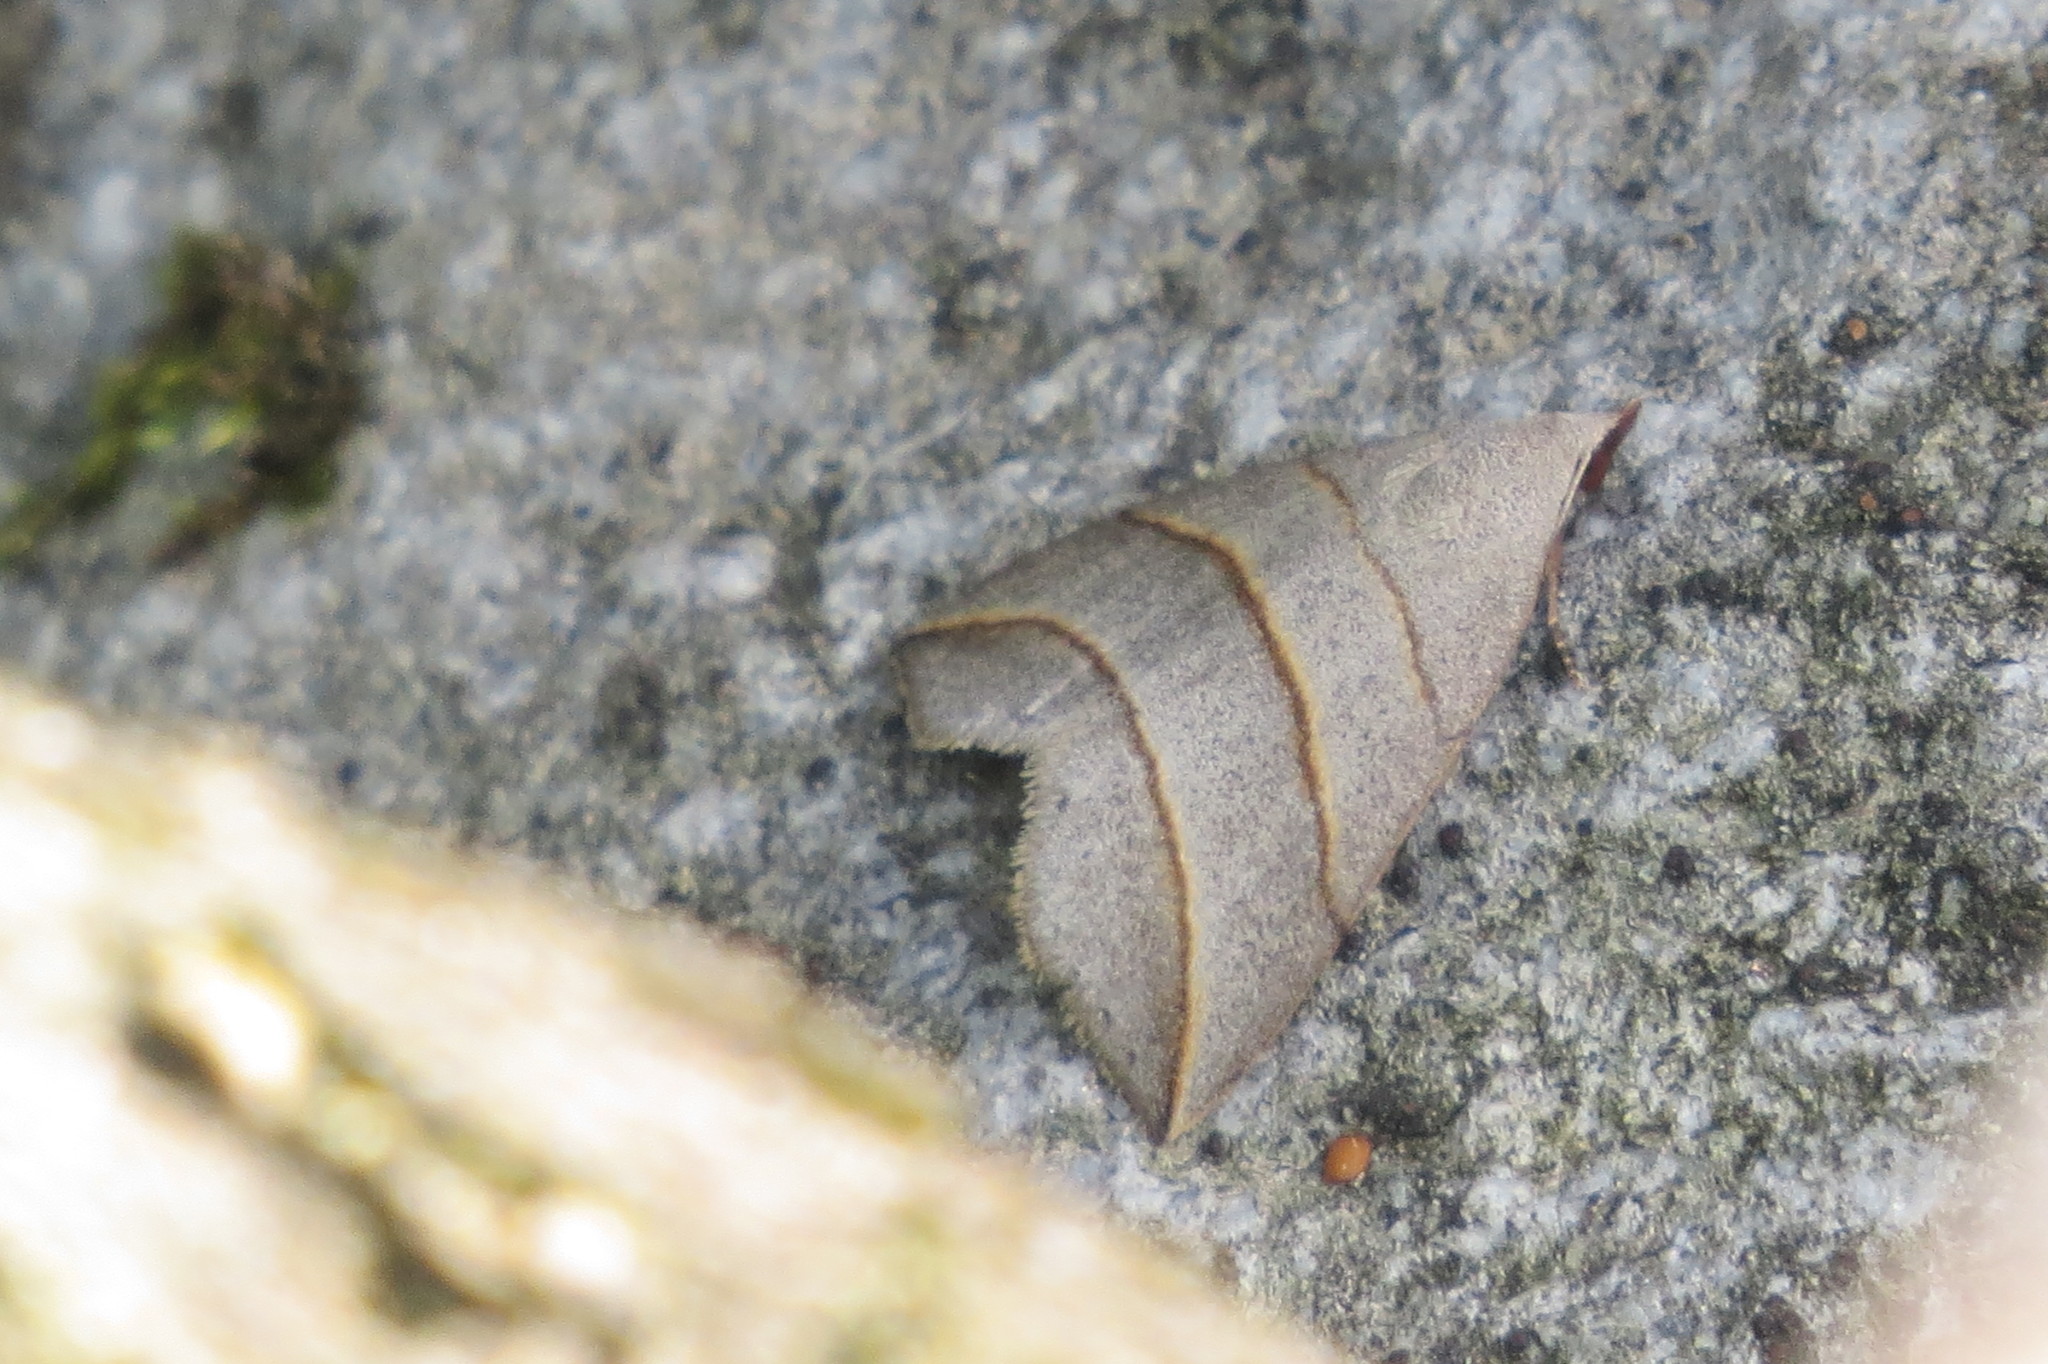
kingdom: Animalia
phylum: Arthropoda
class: Insecta
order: Lepidoptera
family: Erebidae
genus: Colobochyla
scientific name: Colobochyla salicalis
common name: Lesser belle
